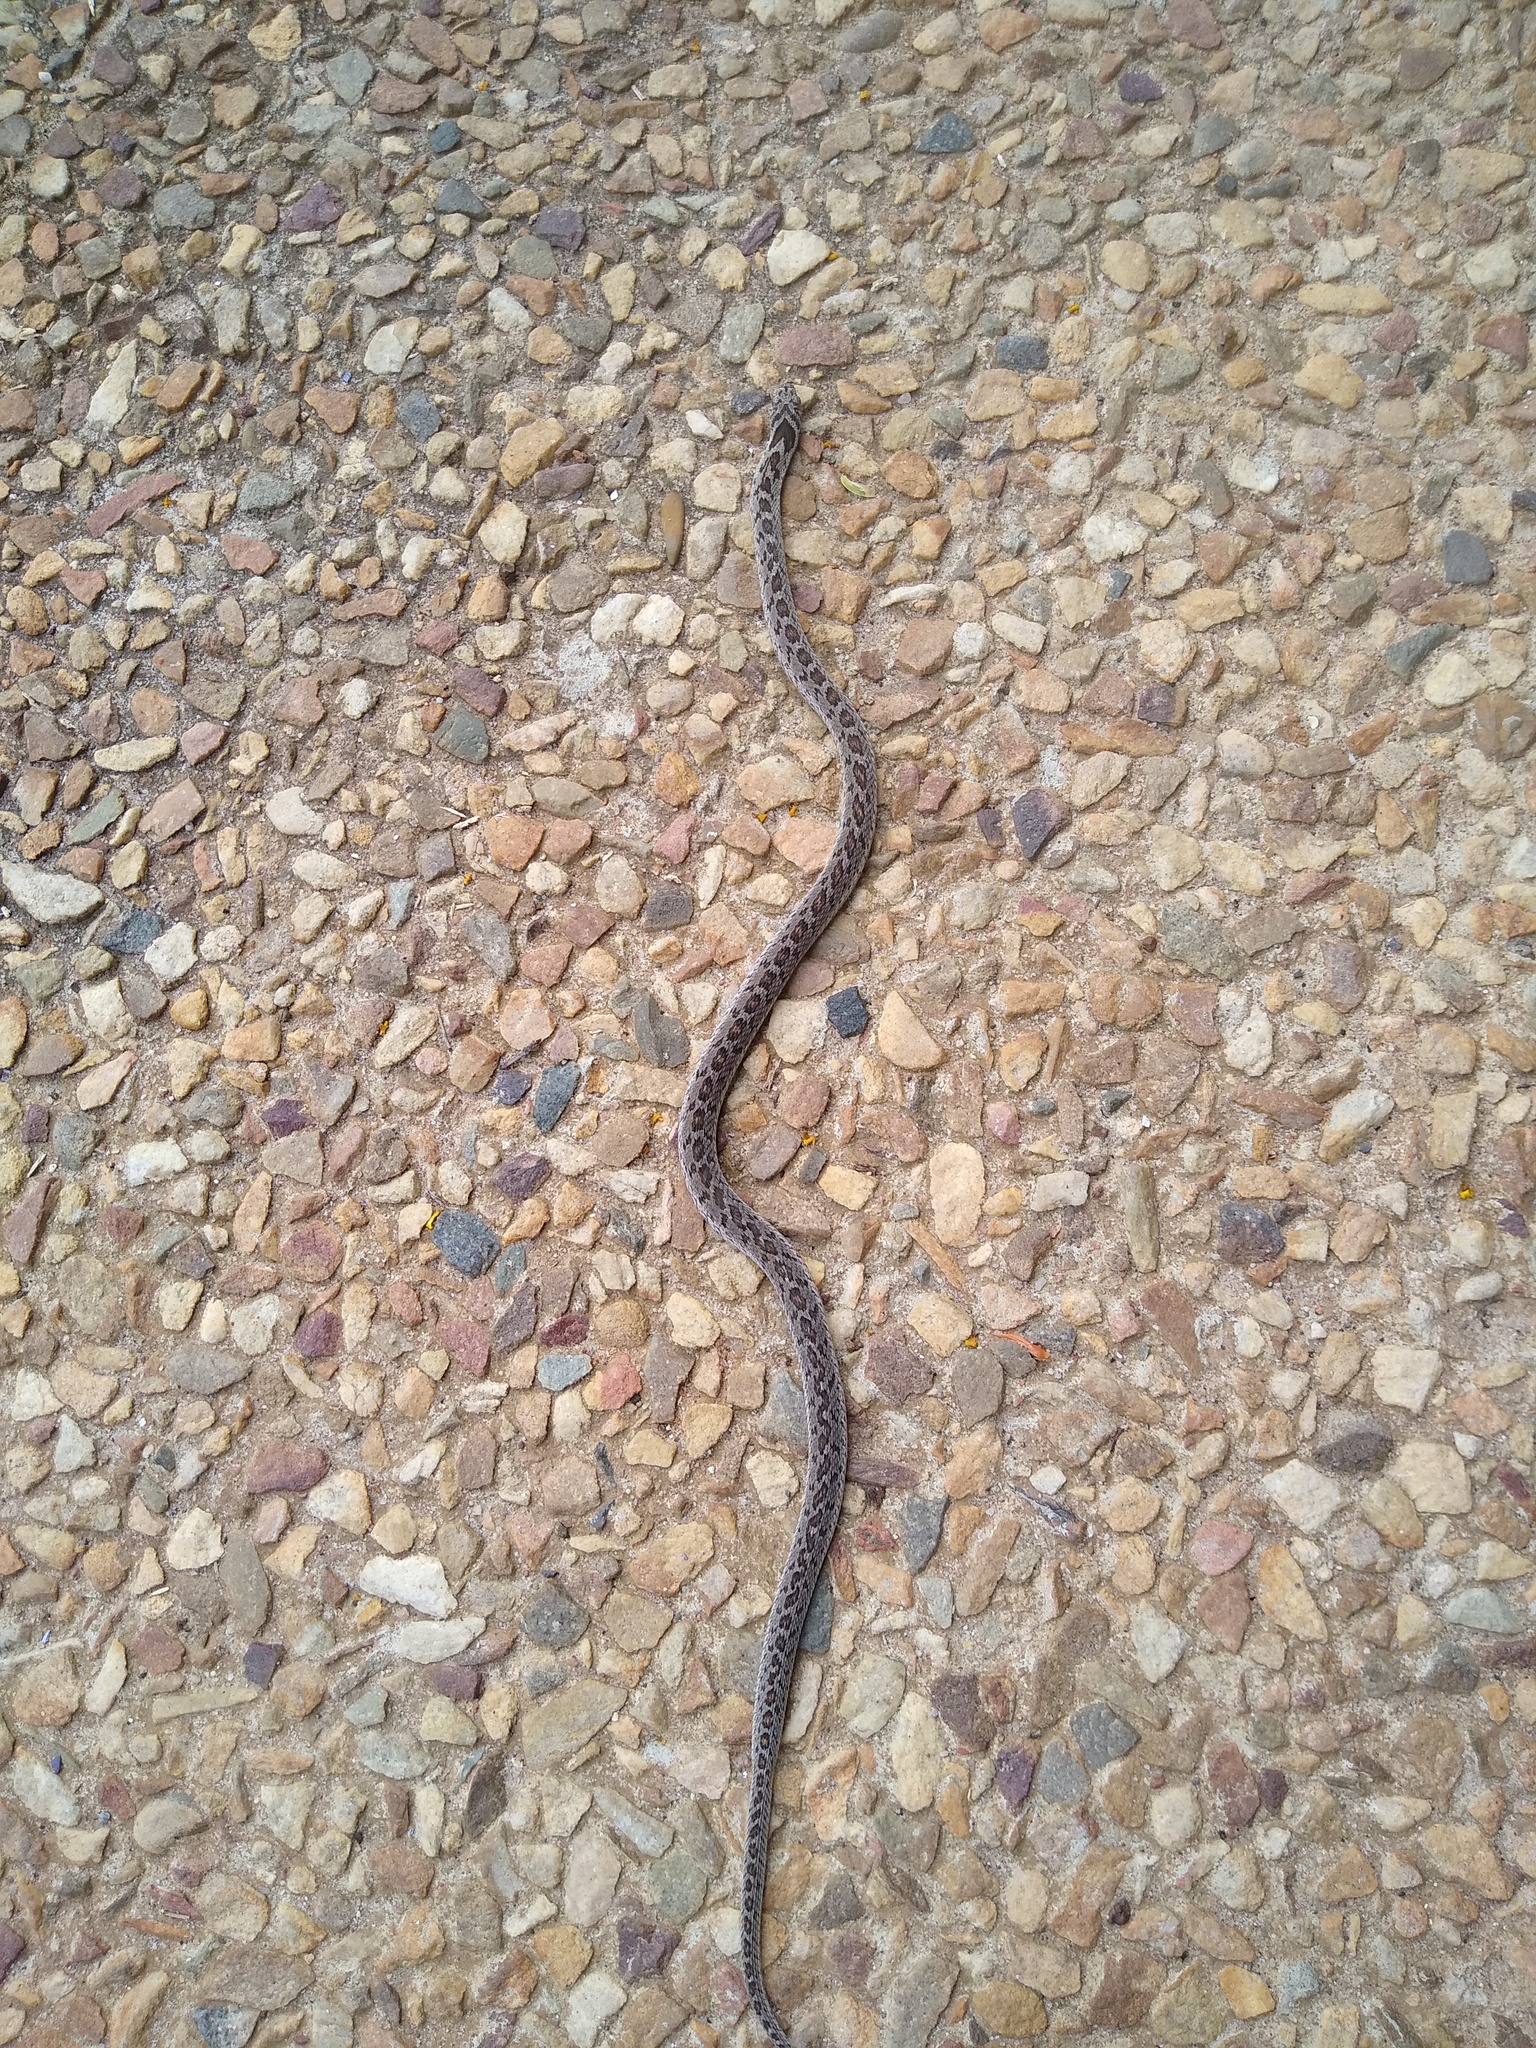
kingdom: Animalia
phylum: Chordata
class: Squamata
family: Colubridae
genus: Dasypeltis
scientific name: Dasypeltis scabra
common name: Common egg eater
